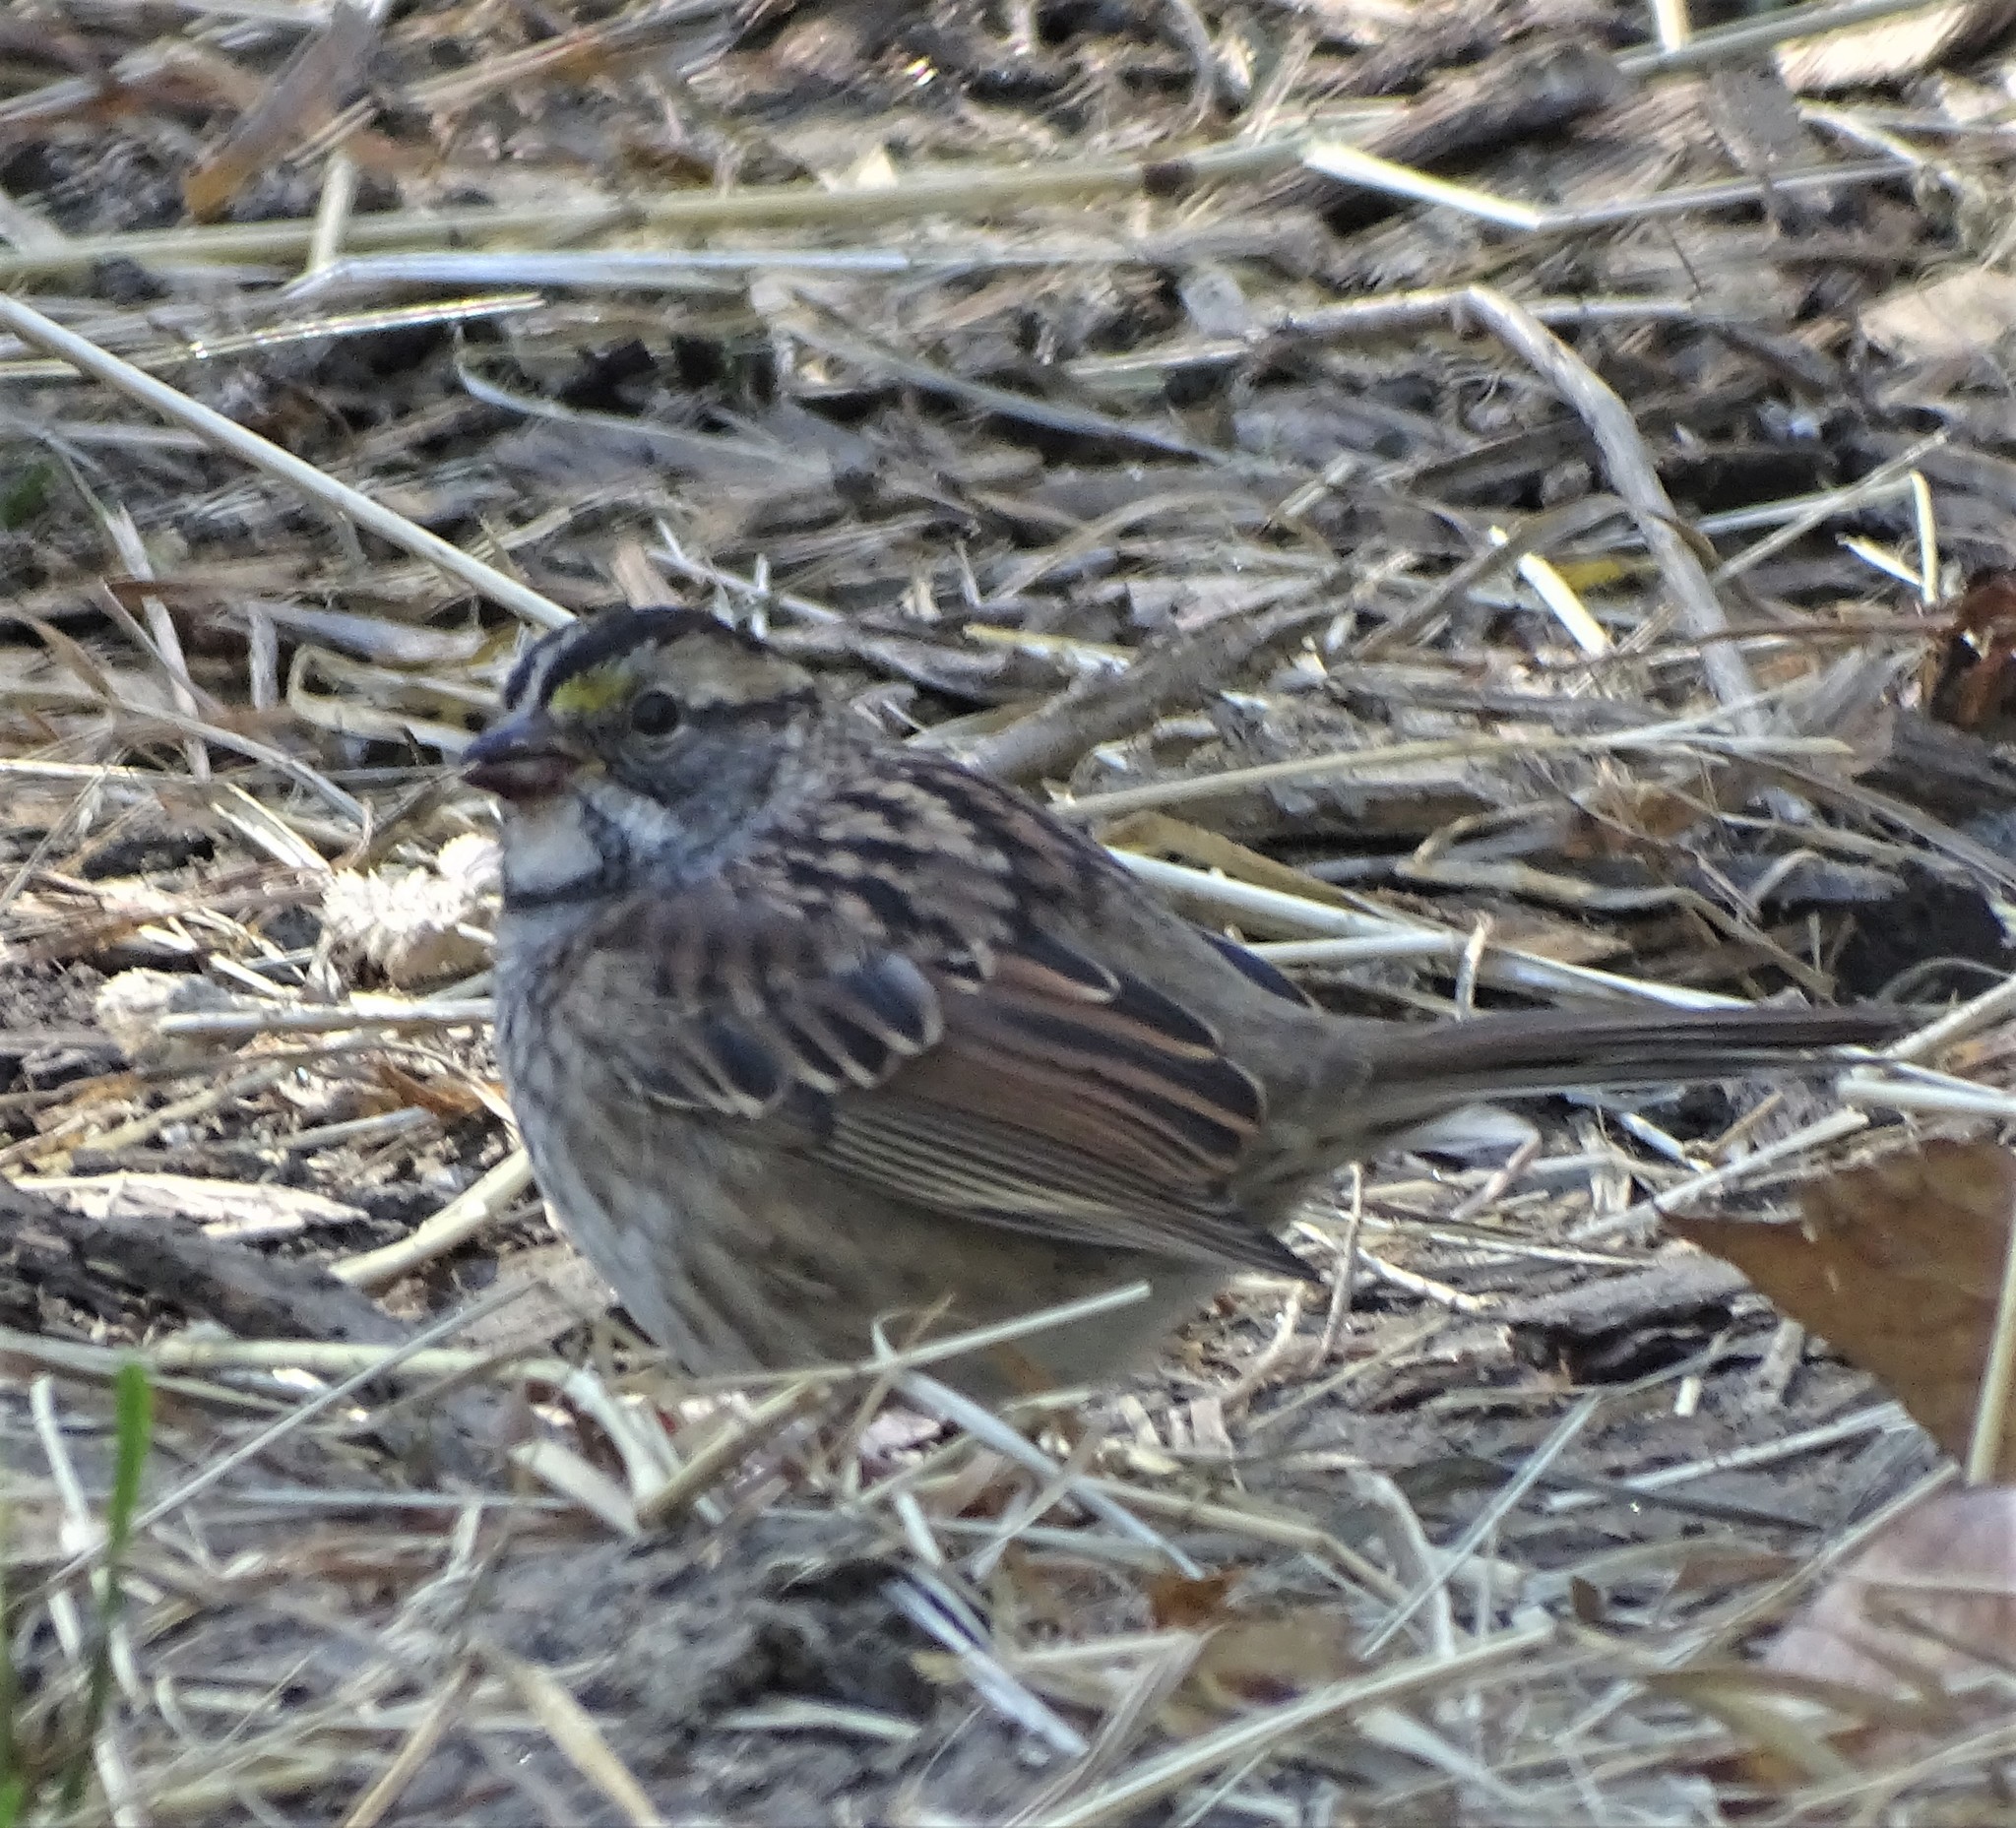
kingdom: Animalia
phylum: Chordata
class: Aves
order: Passeriformes
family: Passerellidae
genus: Zonotrichia
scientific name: Zonotrichia albicollis
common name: White-throated sparrow
